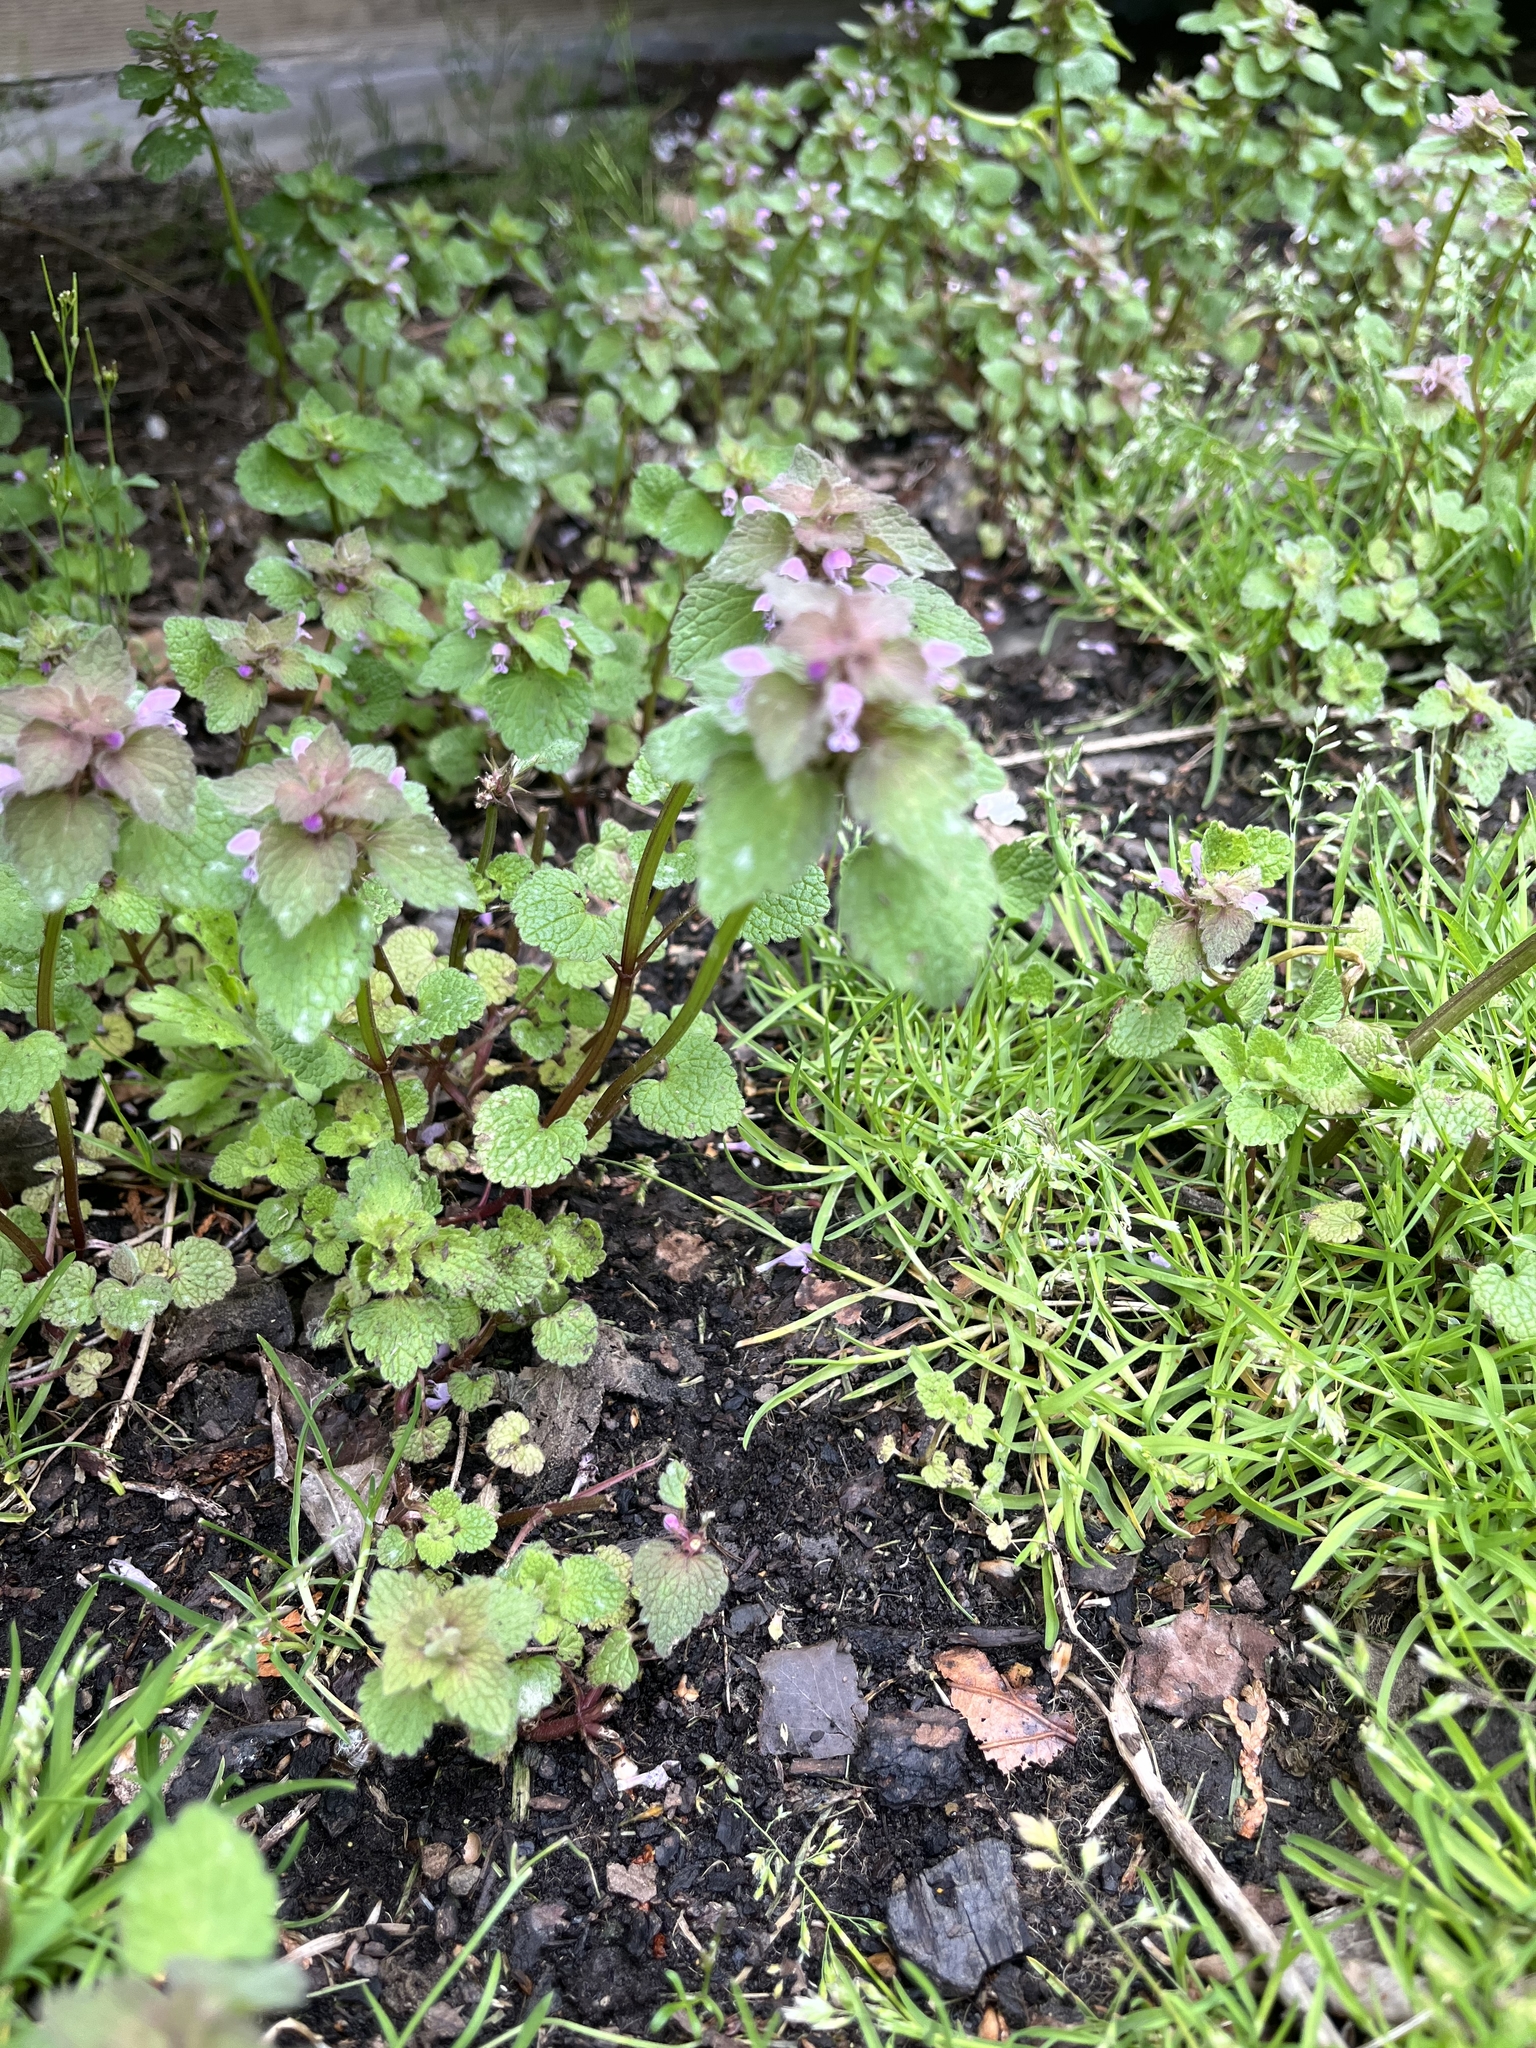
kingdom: Plantae
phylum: Tracheophyta
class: Magnoliopsida
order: Lamiales
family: Lamiaceae
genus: Lamium
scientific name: Lamium purpureum
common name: Red dead-nettle
